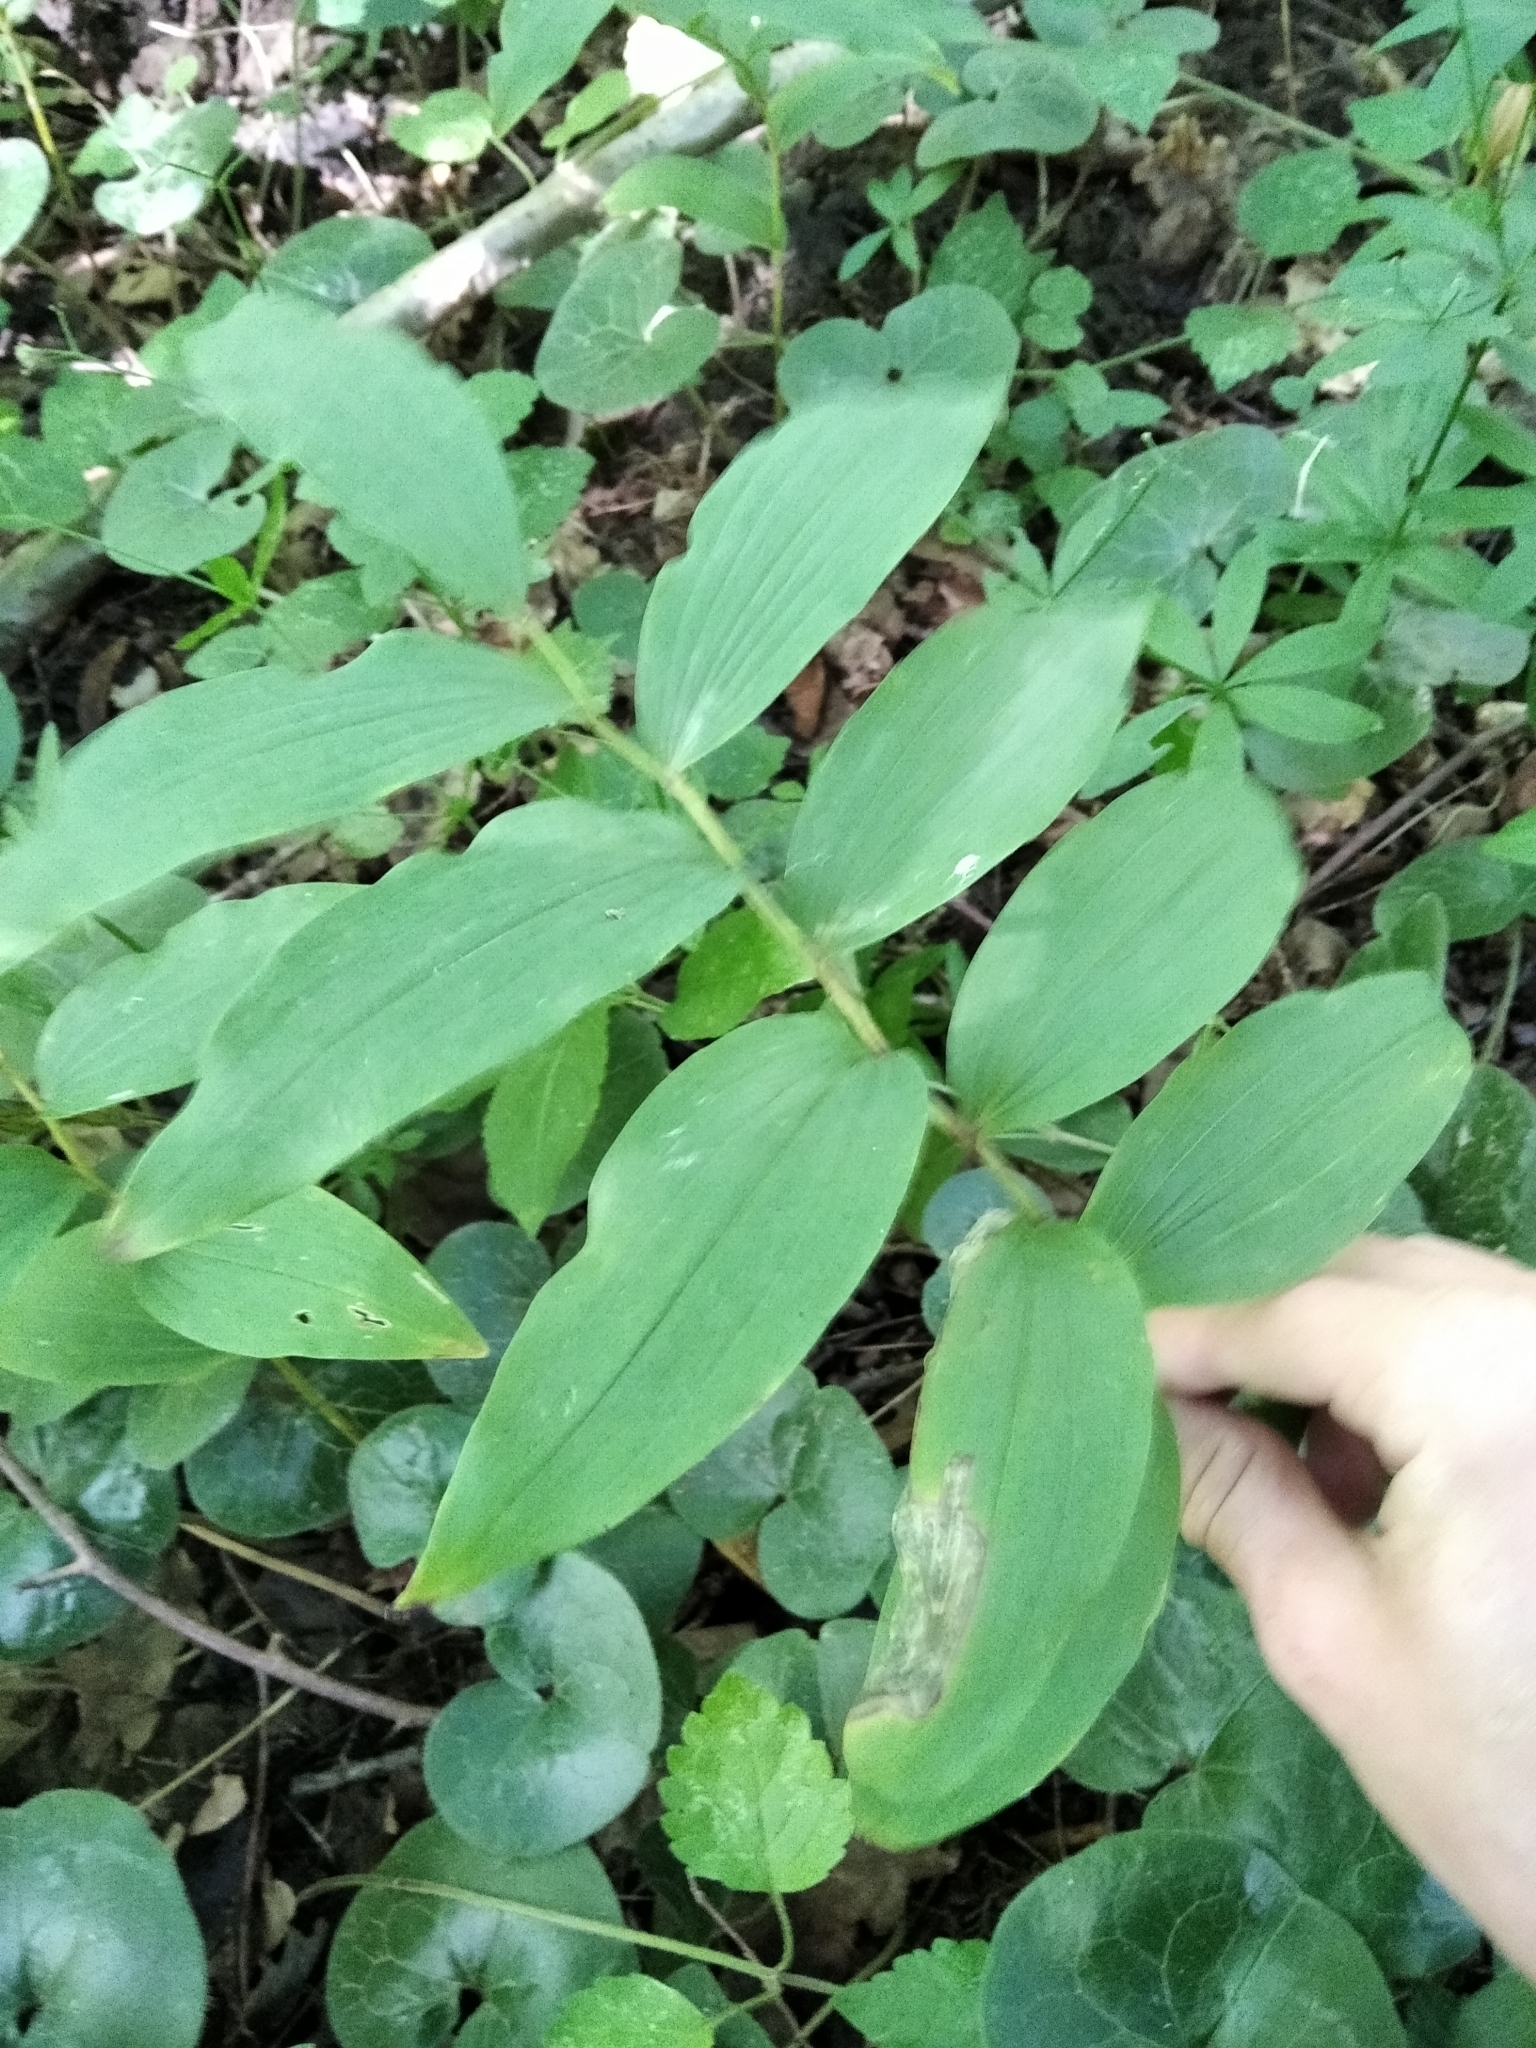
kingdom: Plantae
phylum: Tracheophyta
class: Liliopsida
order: Asparagales
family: Asparagaceae
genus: Polygonatum
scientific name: Polygonatum multiflorum
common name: Solomon's-seal
